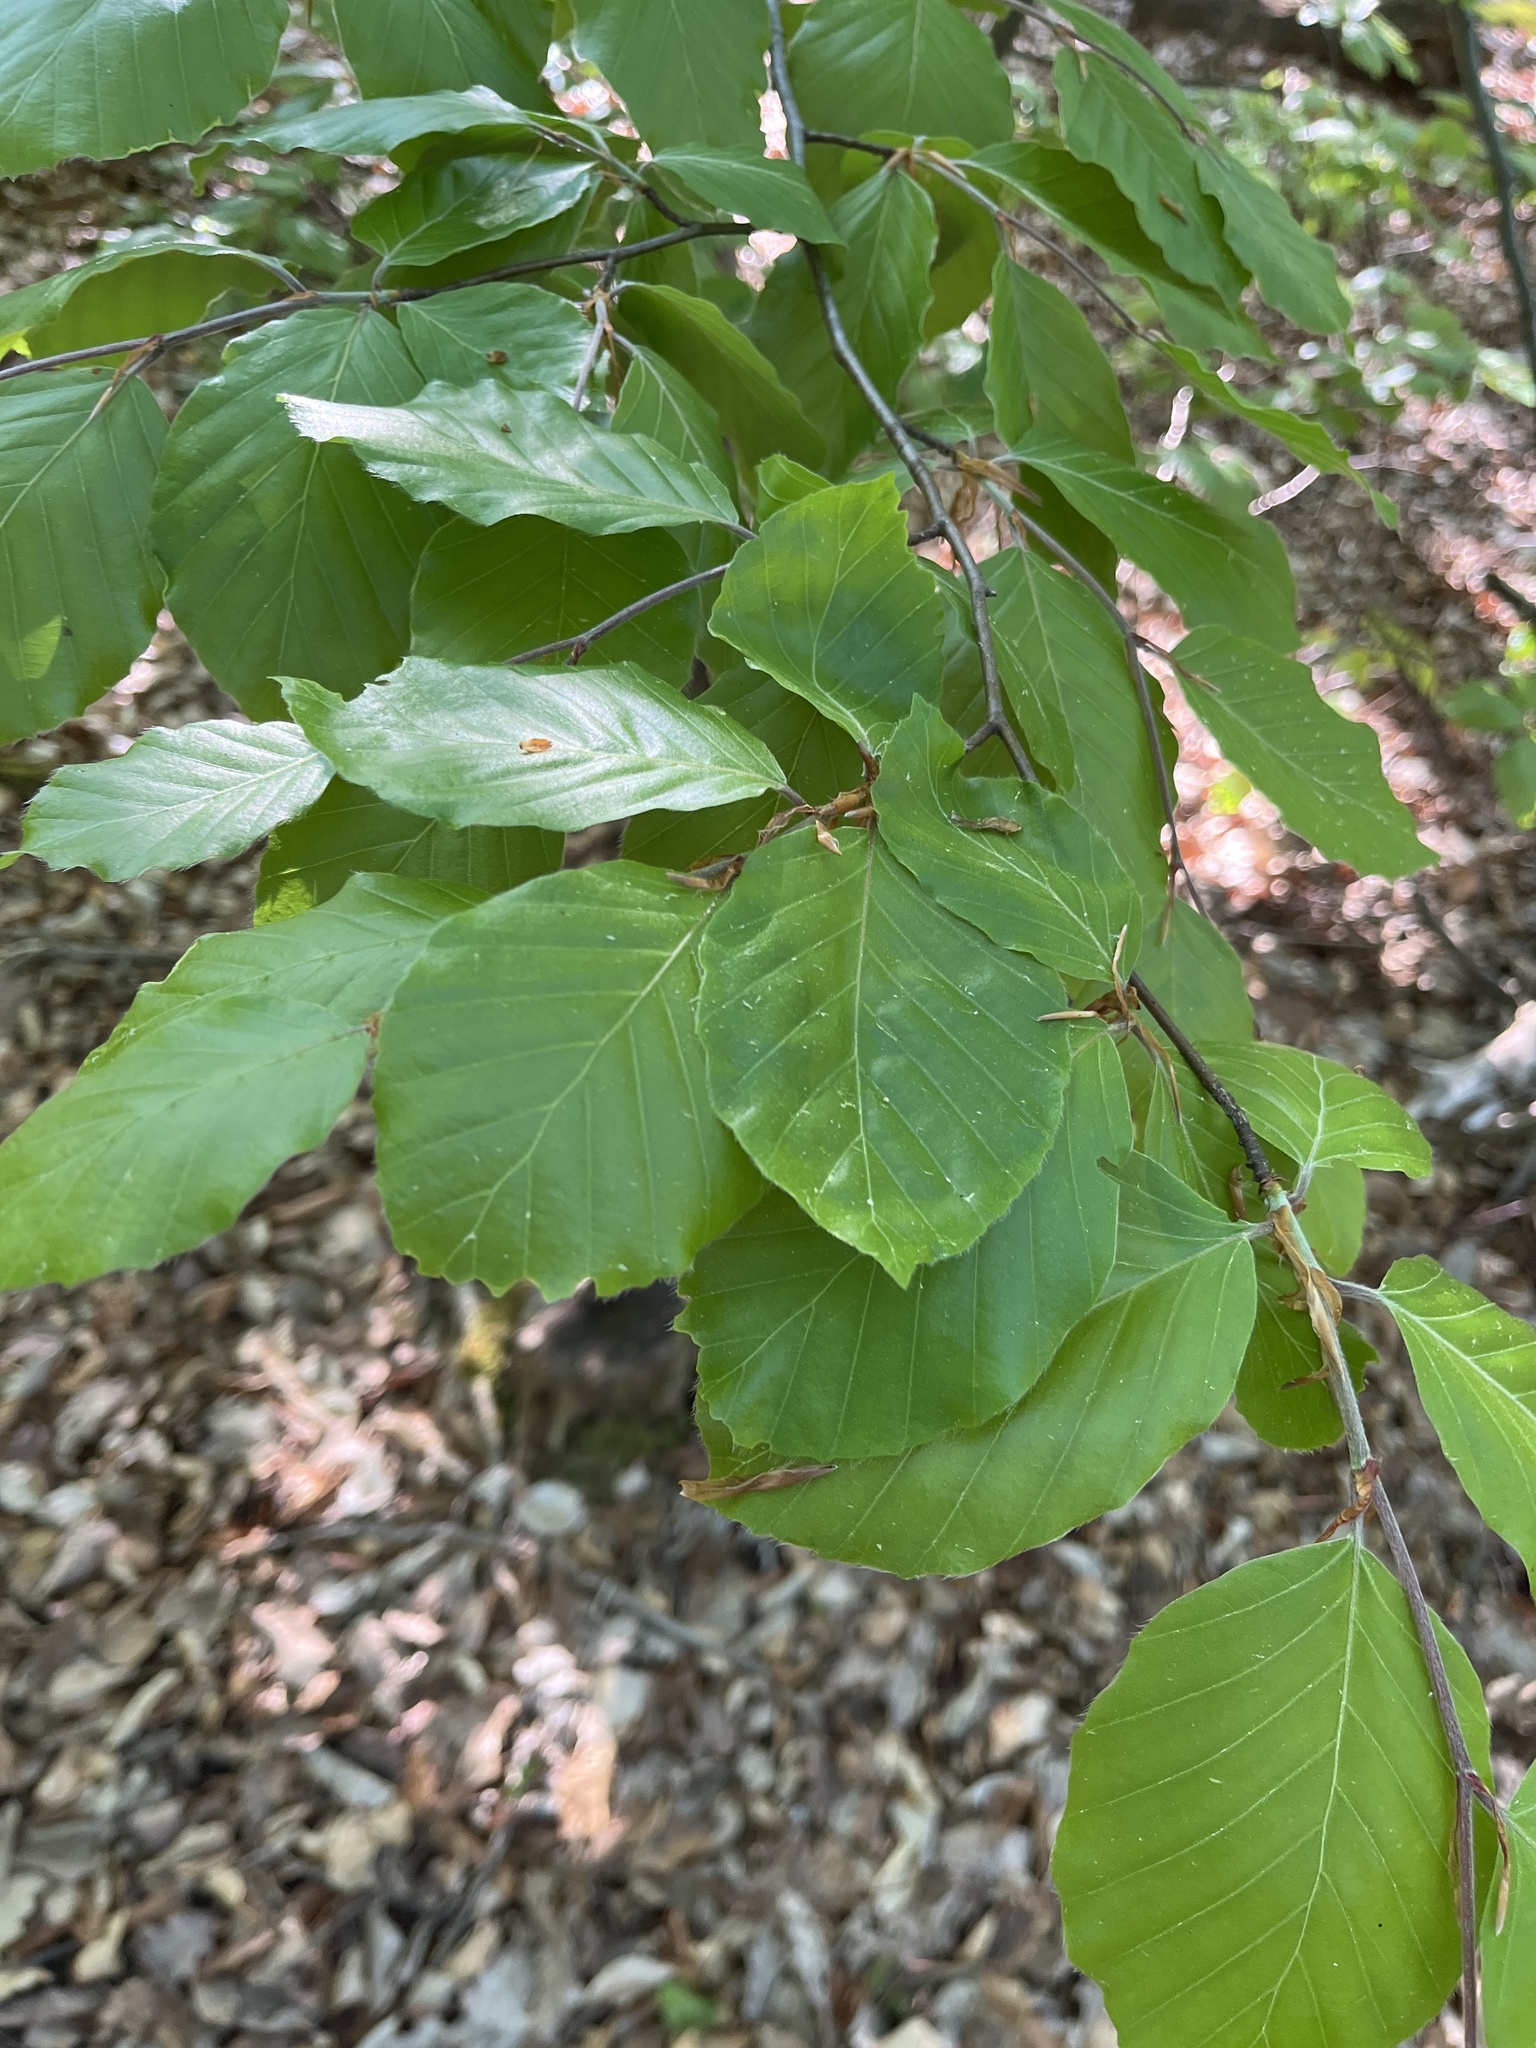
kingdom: Plantae
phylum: Tracheophyta
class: Magnoliopsida
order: Fagales
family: Fagaceae
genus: Fagus
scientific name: Fagus sylvatica
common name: Beech
